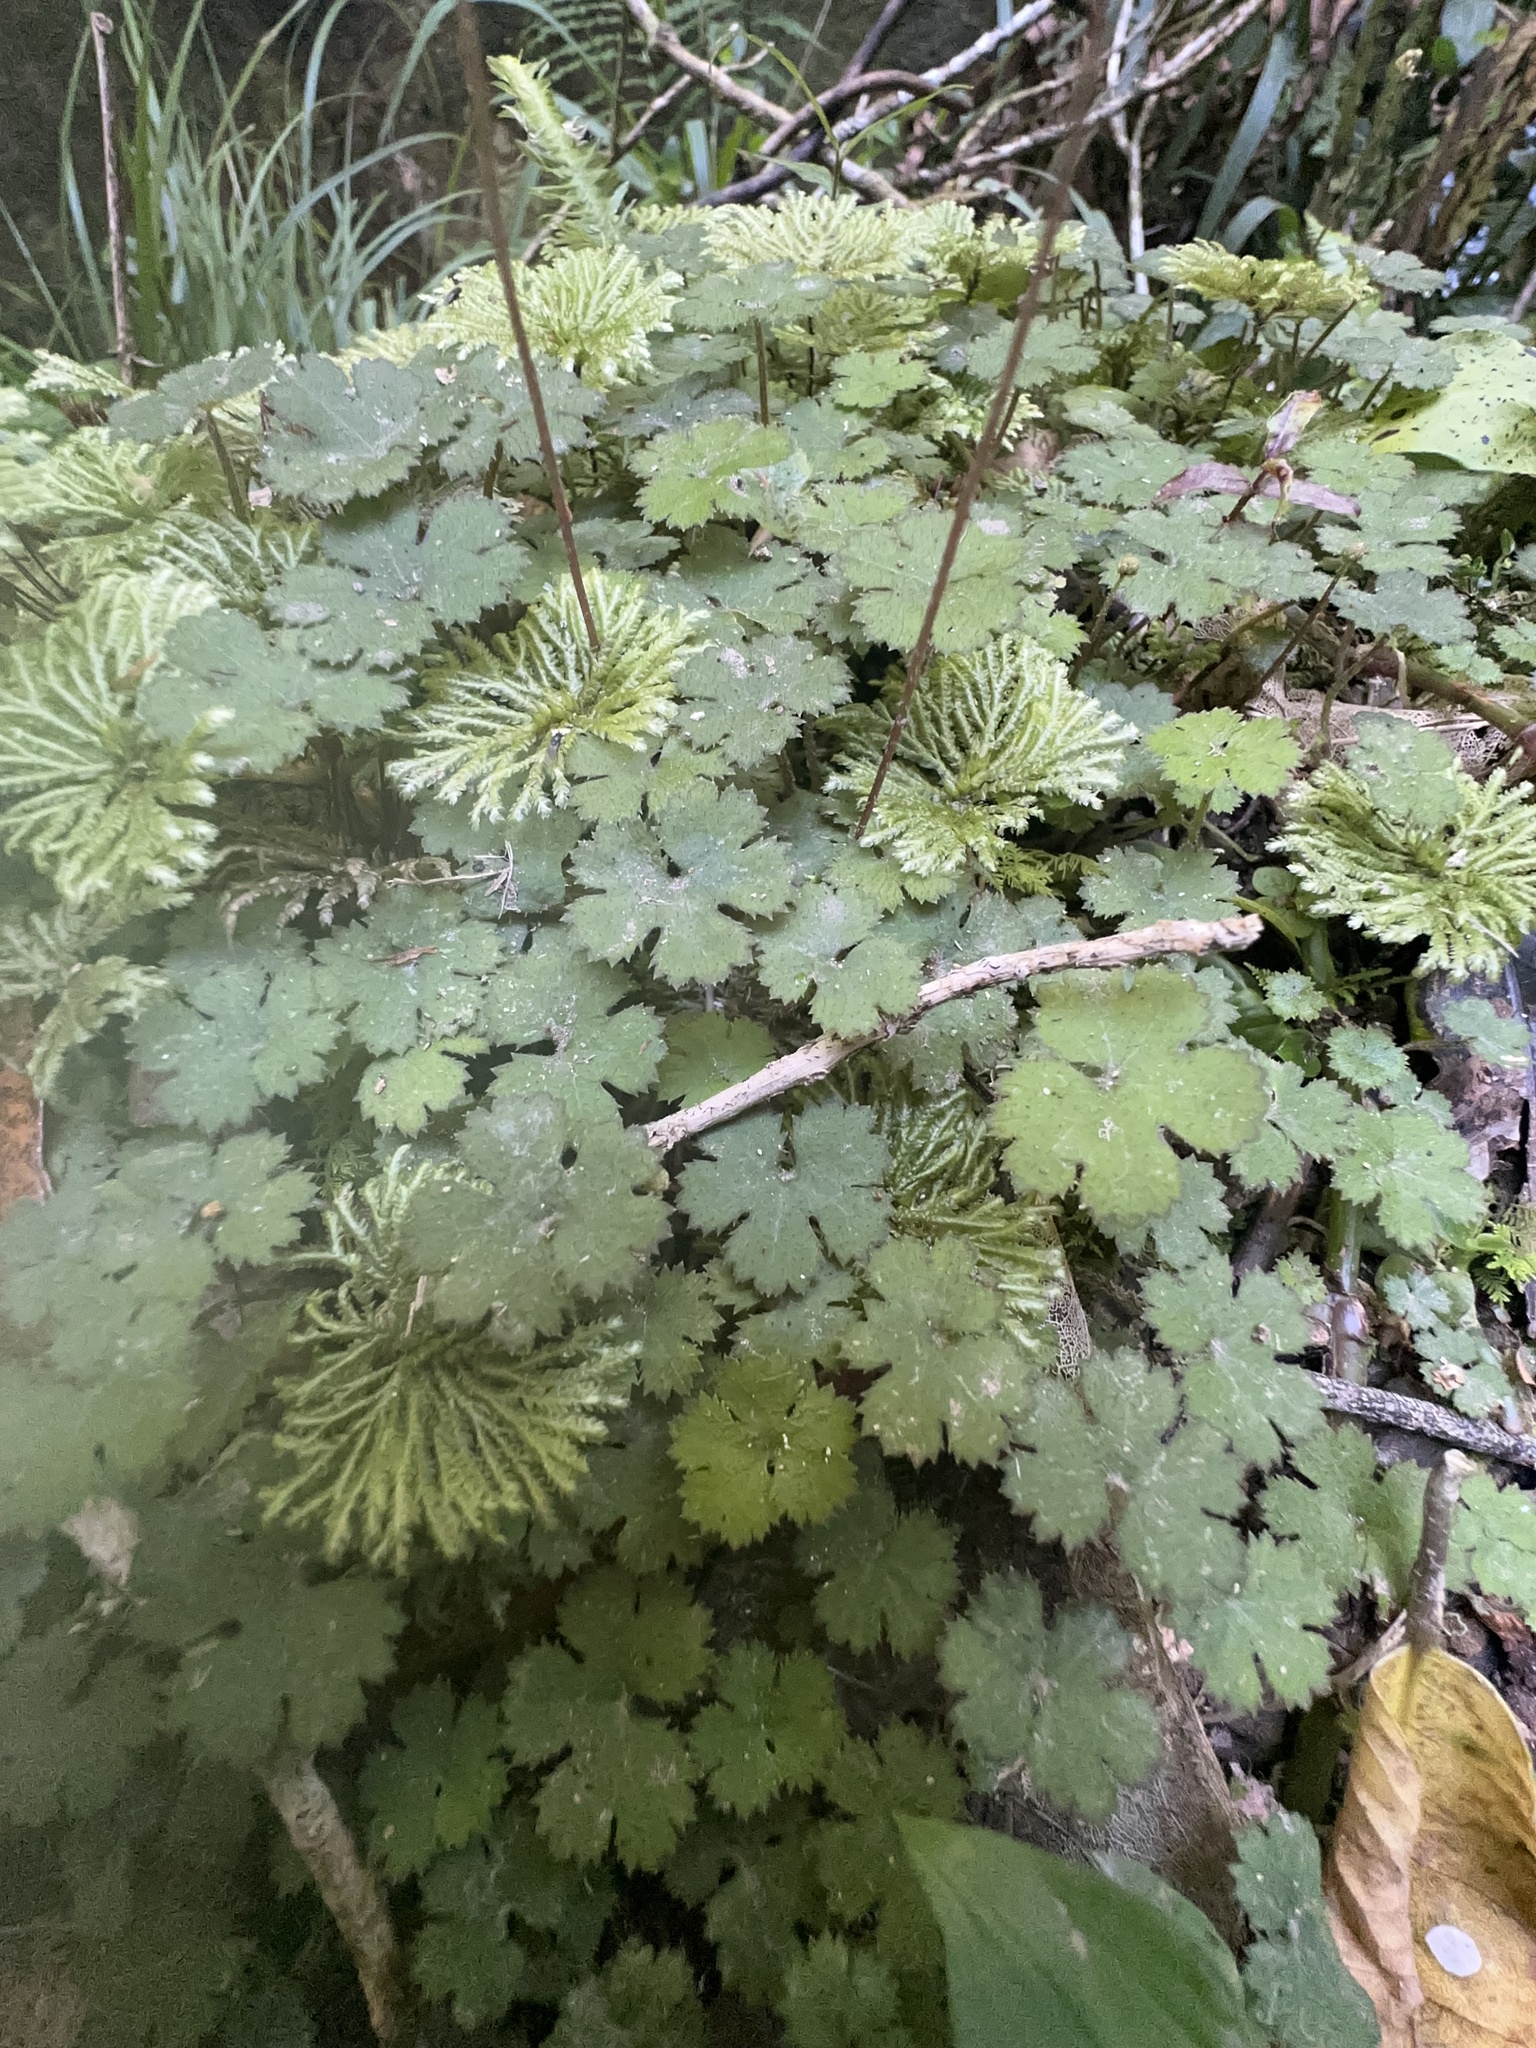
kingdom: Plantae
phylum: Tracheophyta
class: Magnoliopsida
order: Apiales
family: Araliaceae
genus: Hydrocotyle
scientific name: Hydrocotyle elongata
